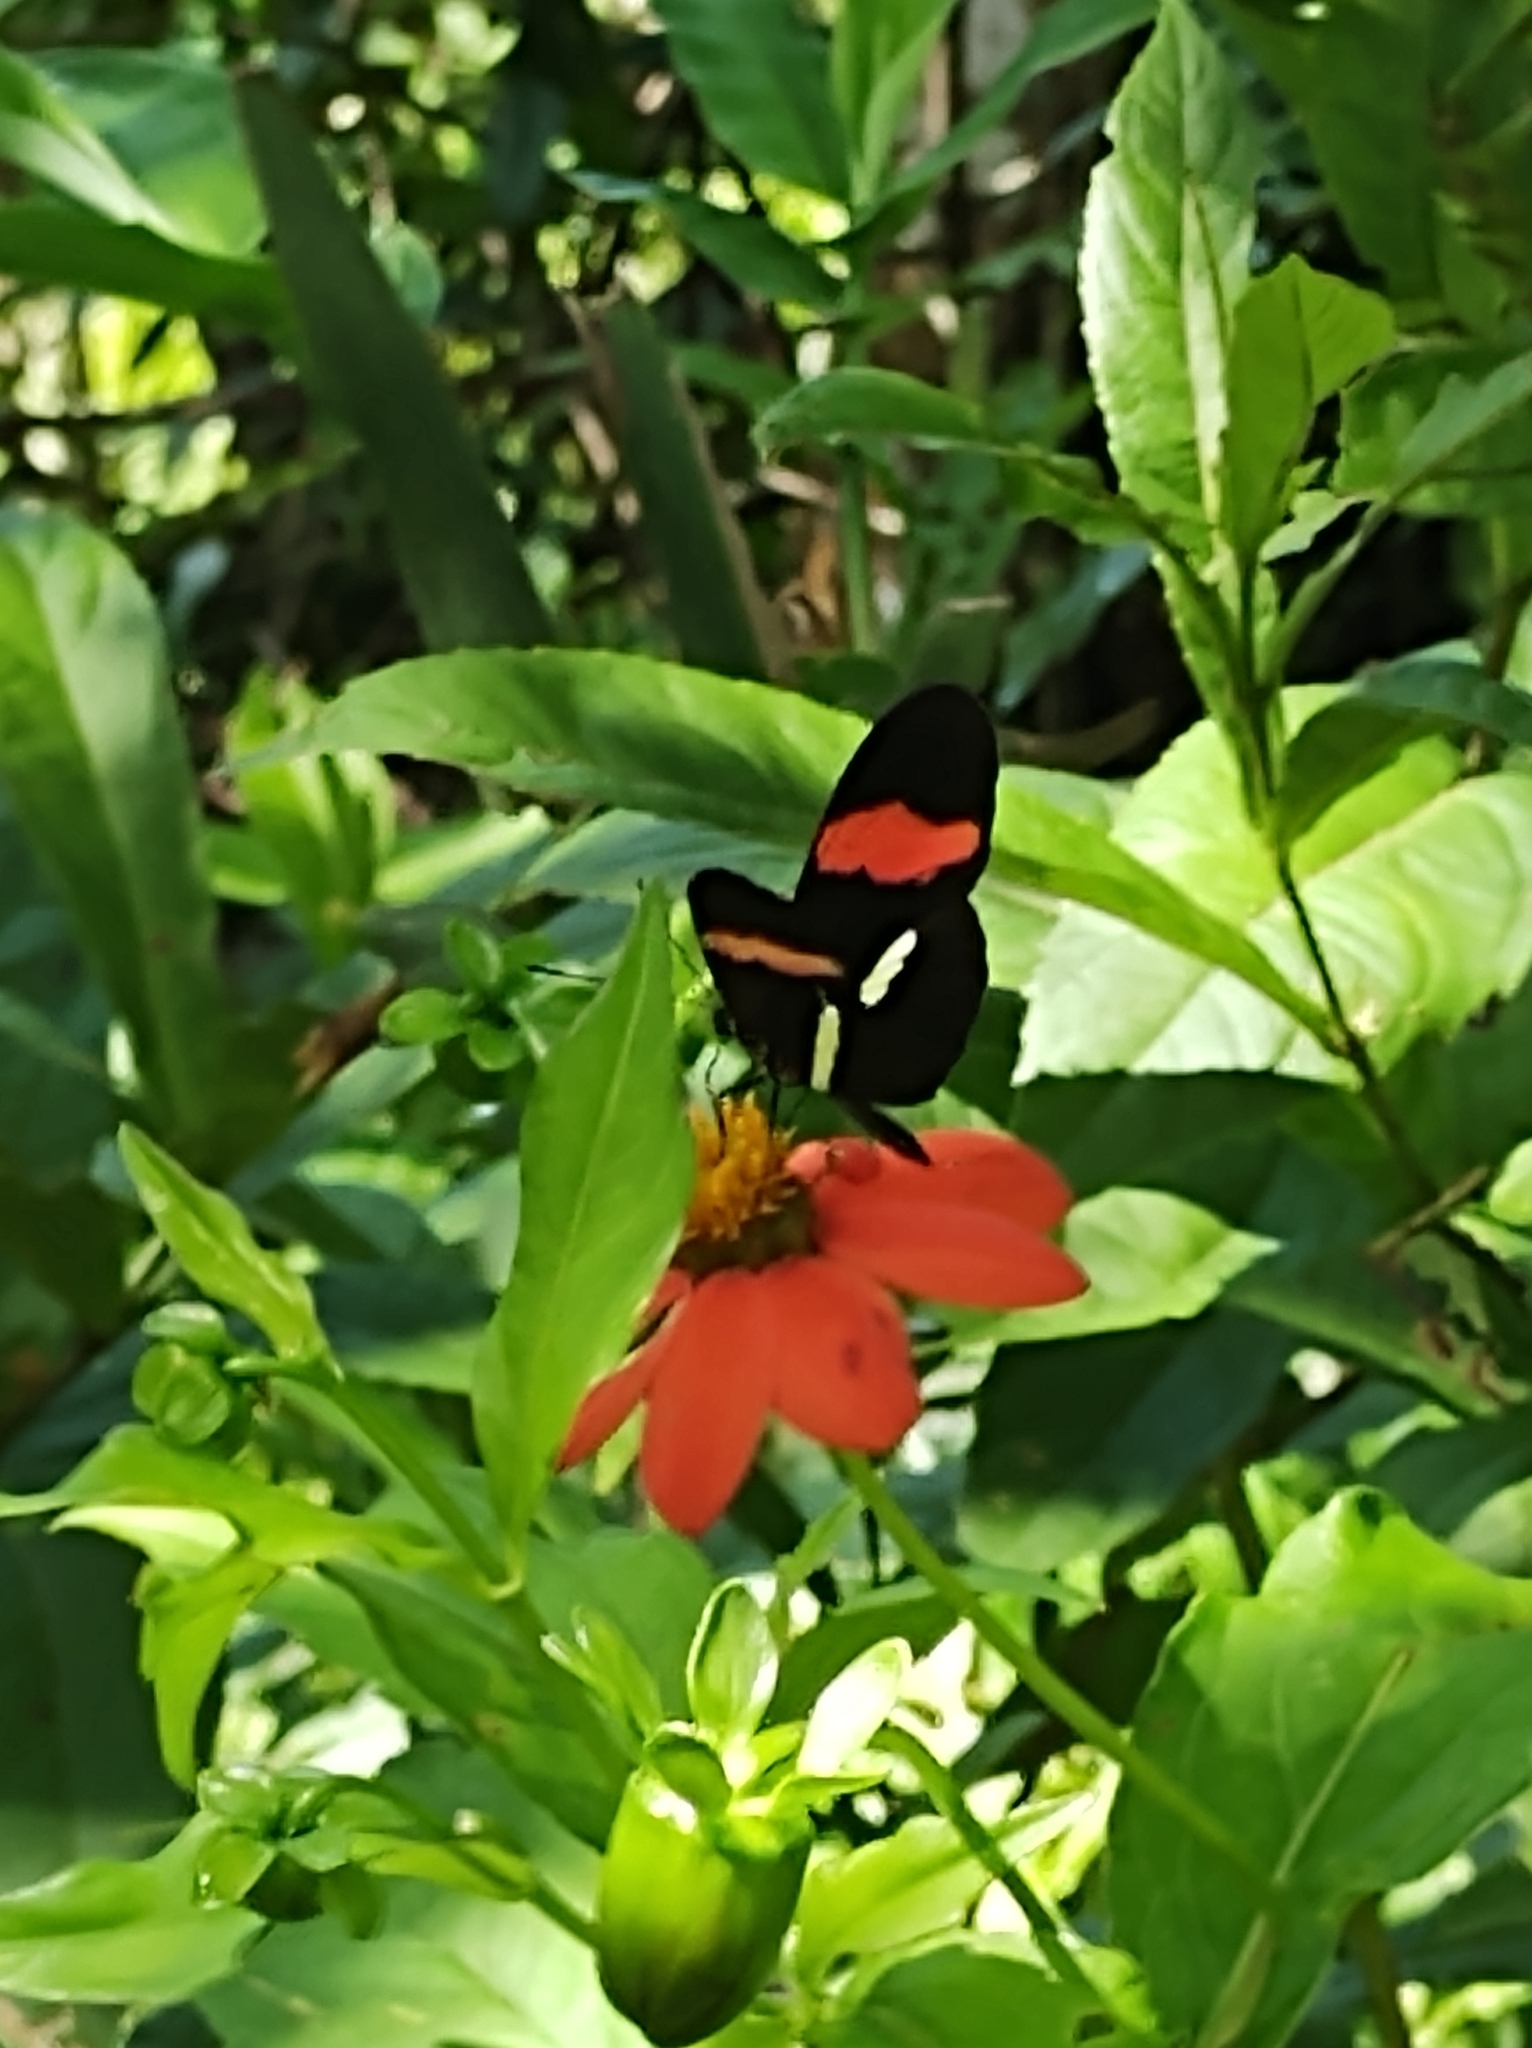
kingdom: Animalia
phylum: Arthropoda
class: Insecta
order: Lepidoptera
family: Nymphalidae
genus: Heliconius
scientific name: Heliconius erato
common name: Common patch longwing
